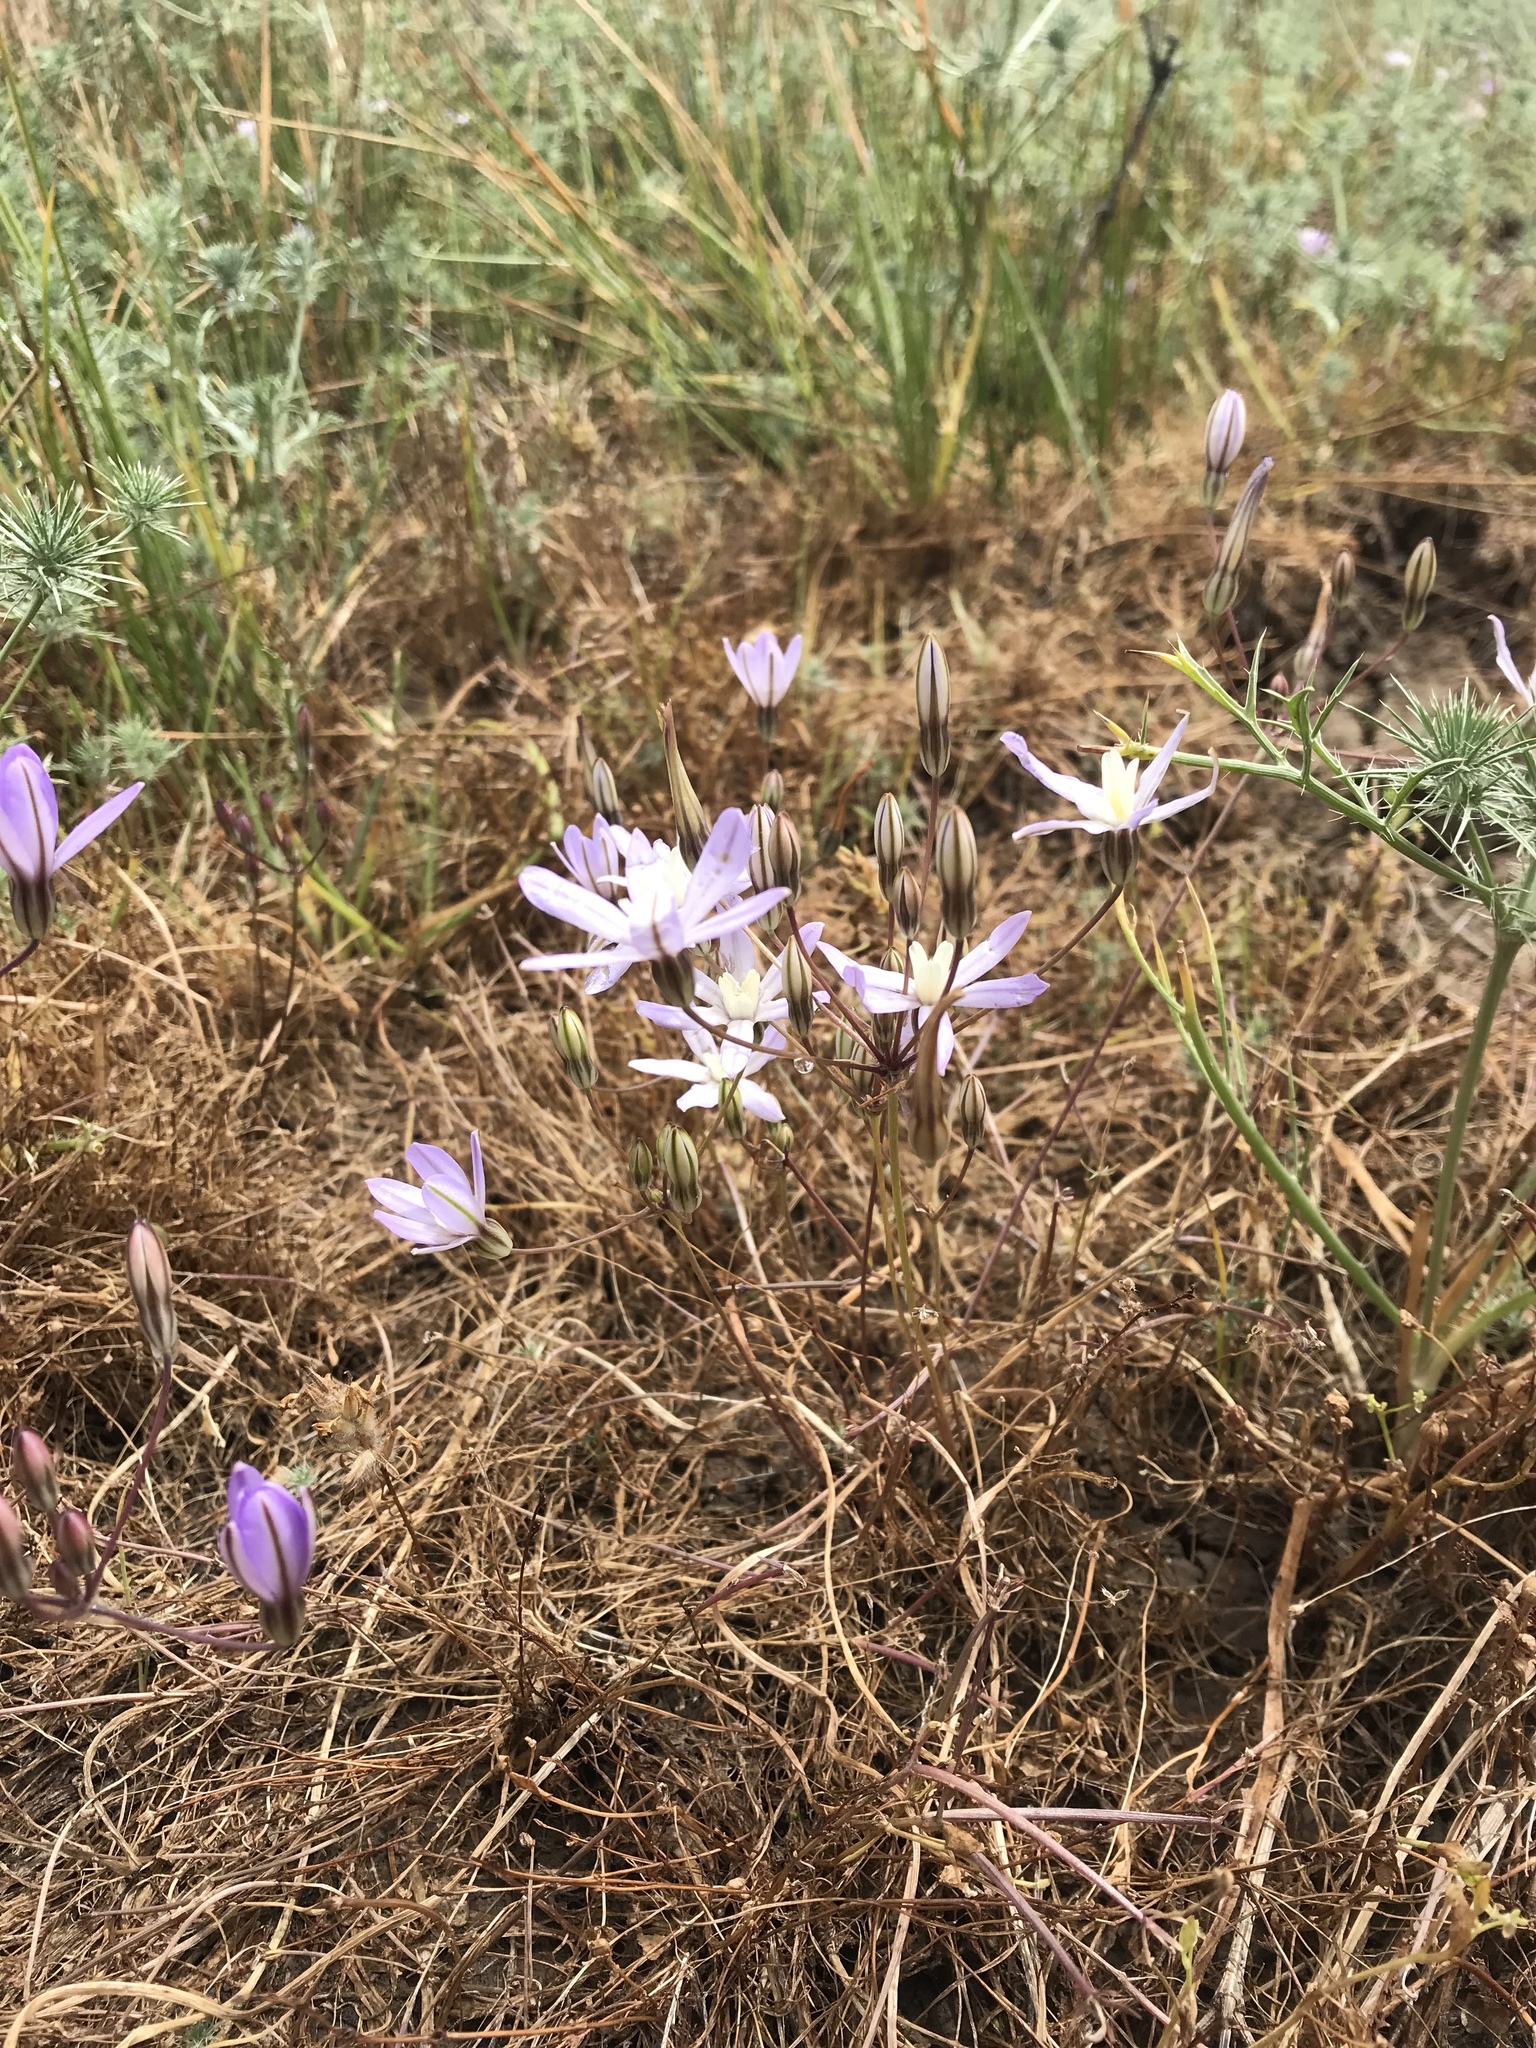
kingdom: Plantae
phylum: Tracheophyta
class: Liliopsida
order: Asparagales
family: Asparagaceae
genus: Brodiaea
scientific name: Brodiaea nana
